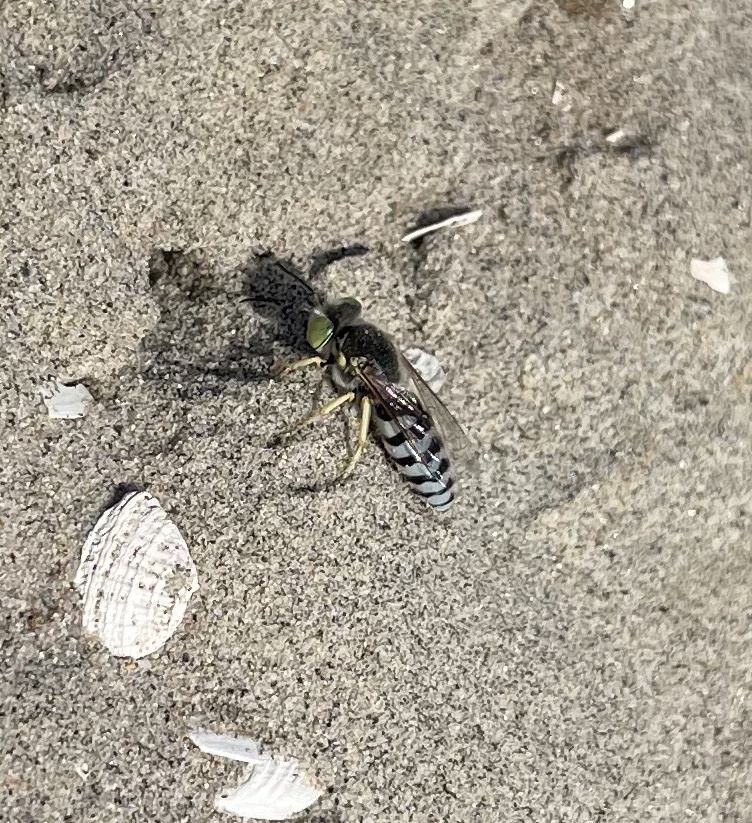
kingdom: Animalia
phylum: Arthropoda
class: Insecta
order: Hymenoptera
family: Crabronidae
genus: Bembix
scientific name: Bembix americana
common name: American sand wasp
